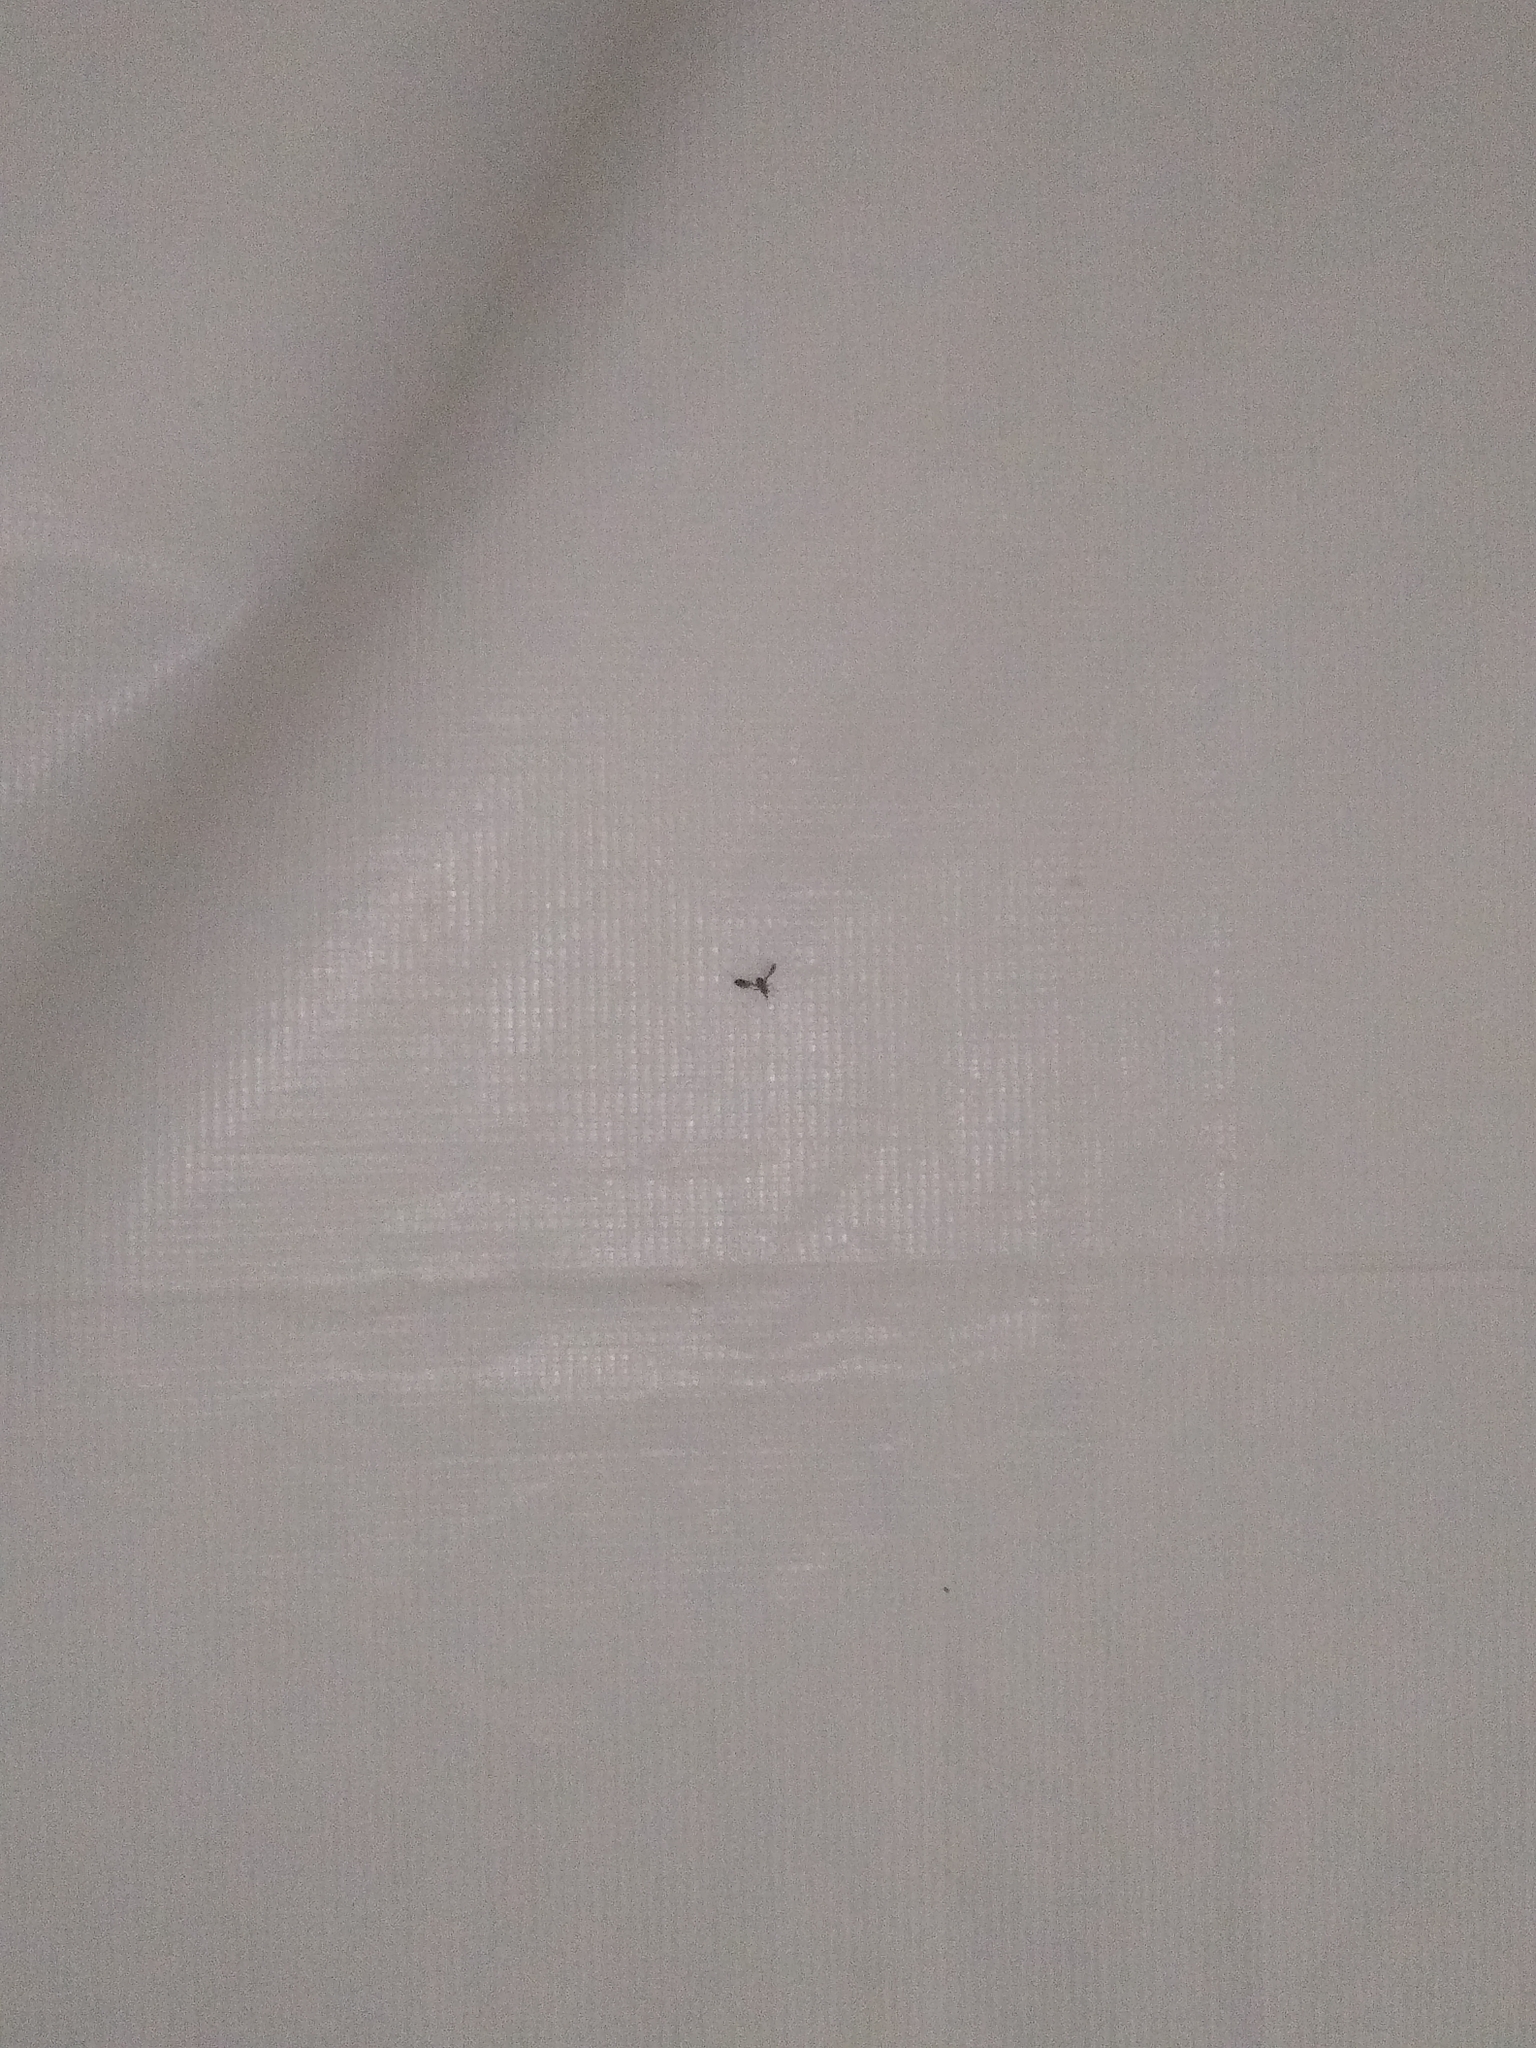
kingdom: Animalia
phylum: Arthropoda
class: Insecta
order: Diptera
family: Ulidiidae
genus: Delphinia
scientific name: Delphinia picta
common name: Common picture-winged fly
